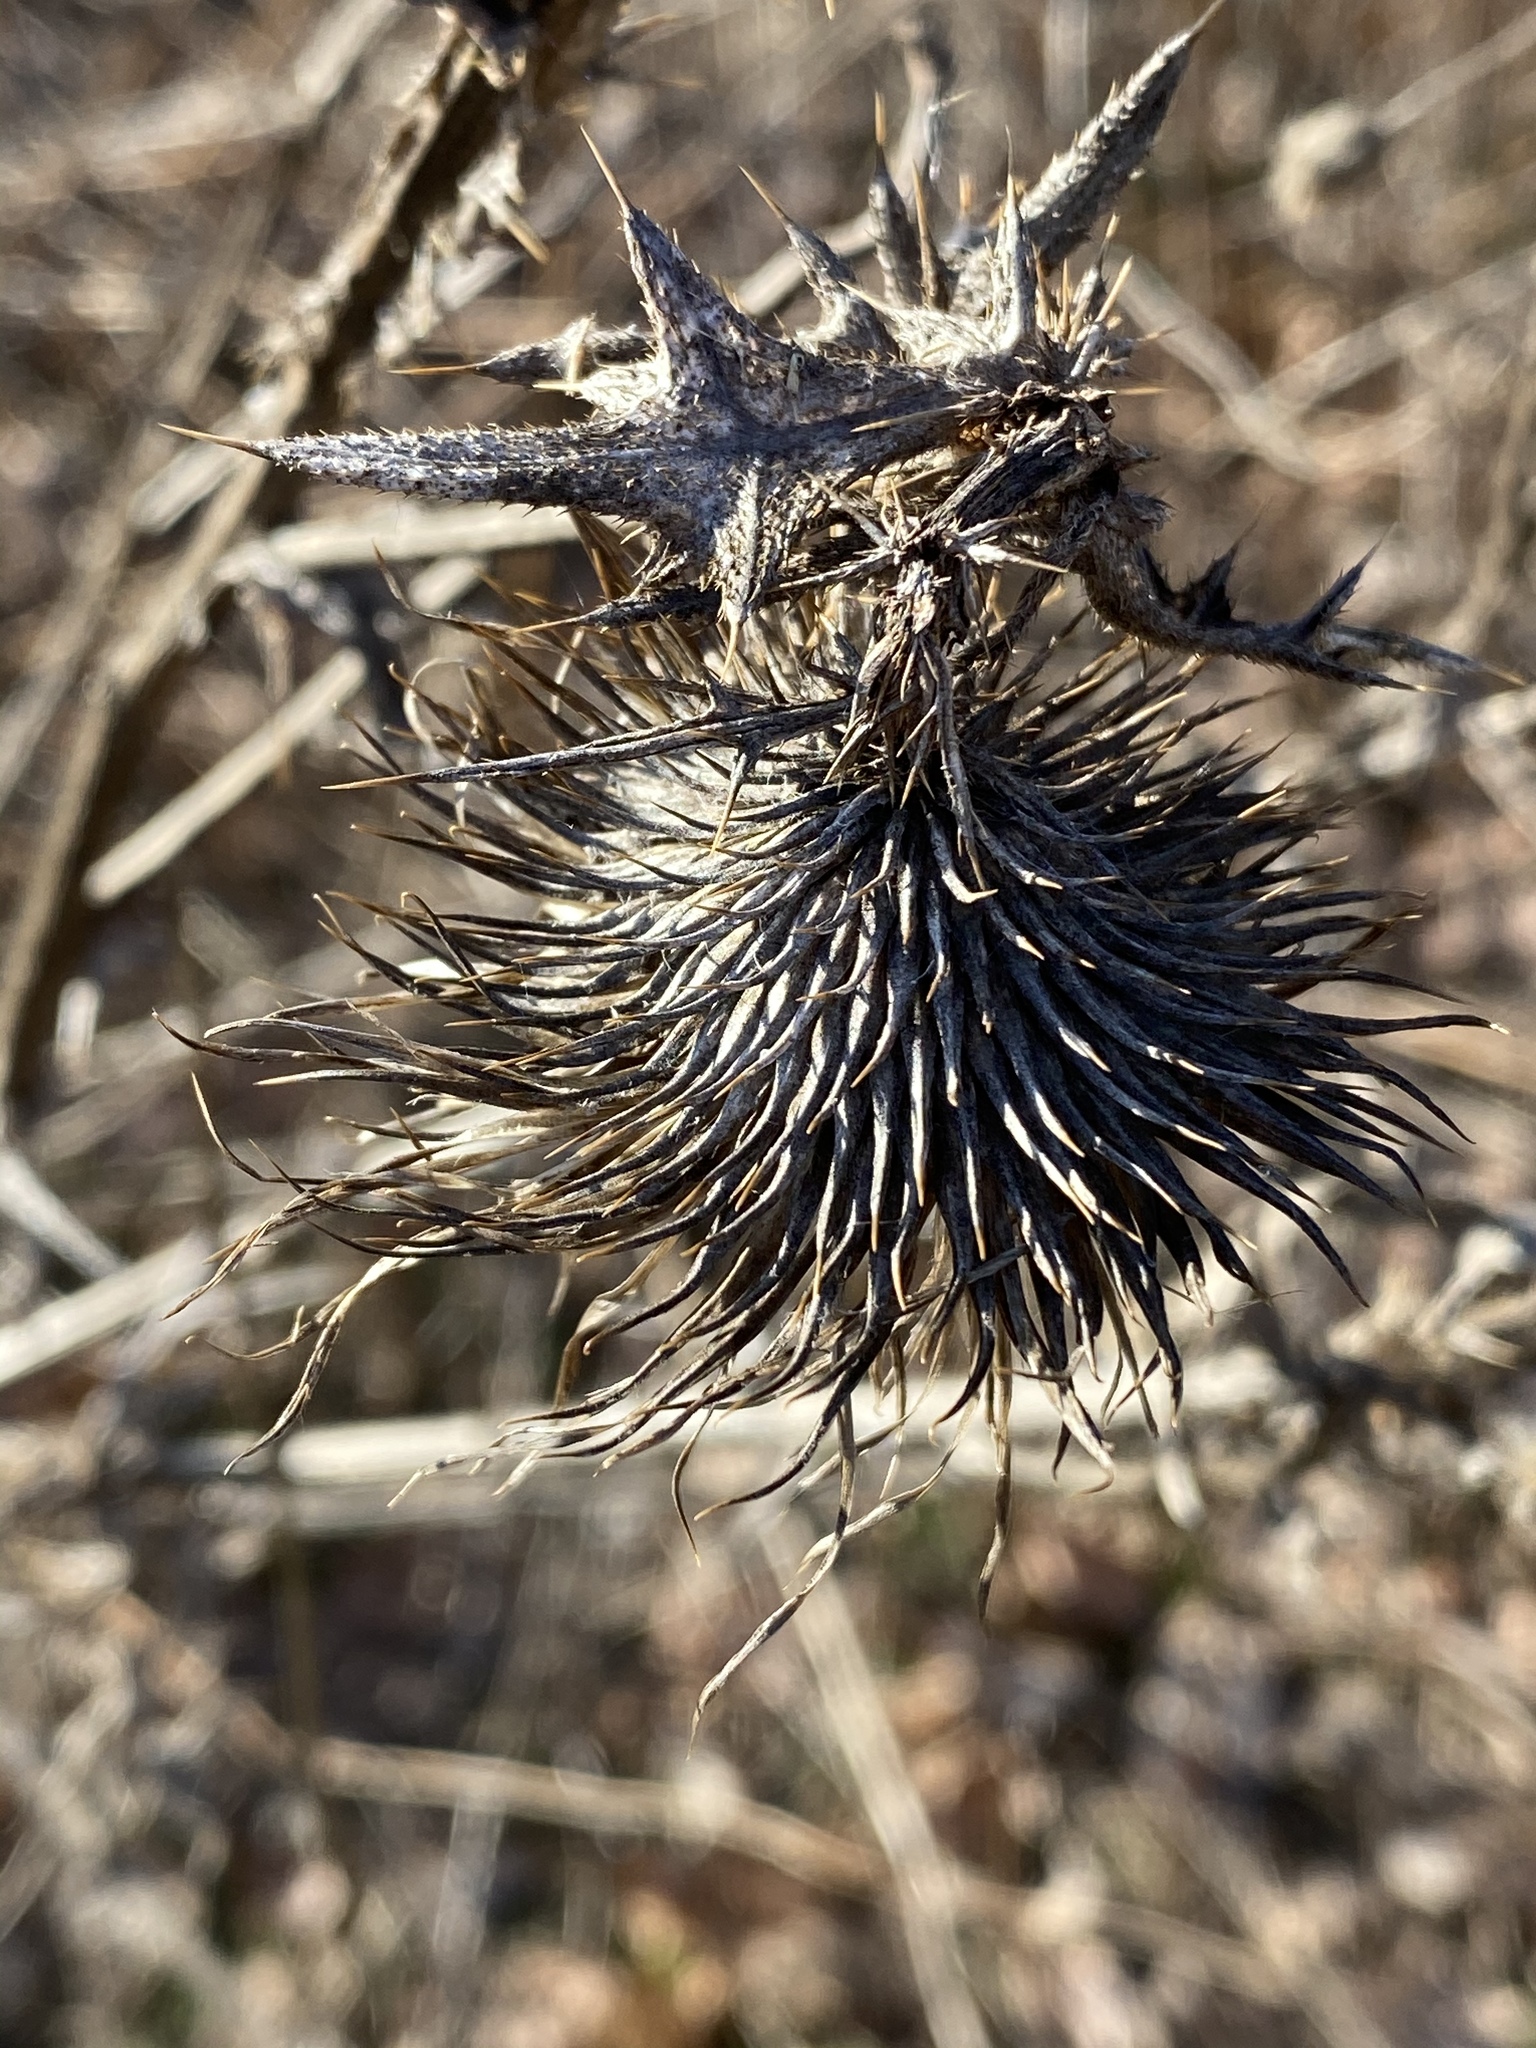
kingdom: Plantae
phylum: Tracheophyta
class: Magnoliopsida
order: Asterales
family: Asteraceae
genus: Cirsium
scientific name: Cirsium vulgare
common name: Bull thistle
